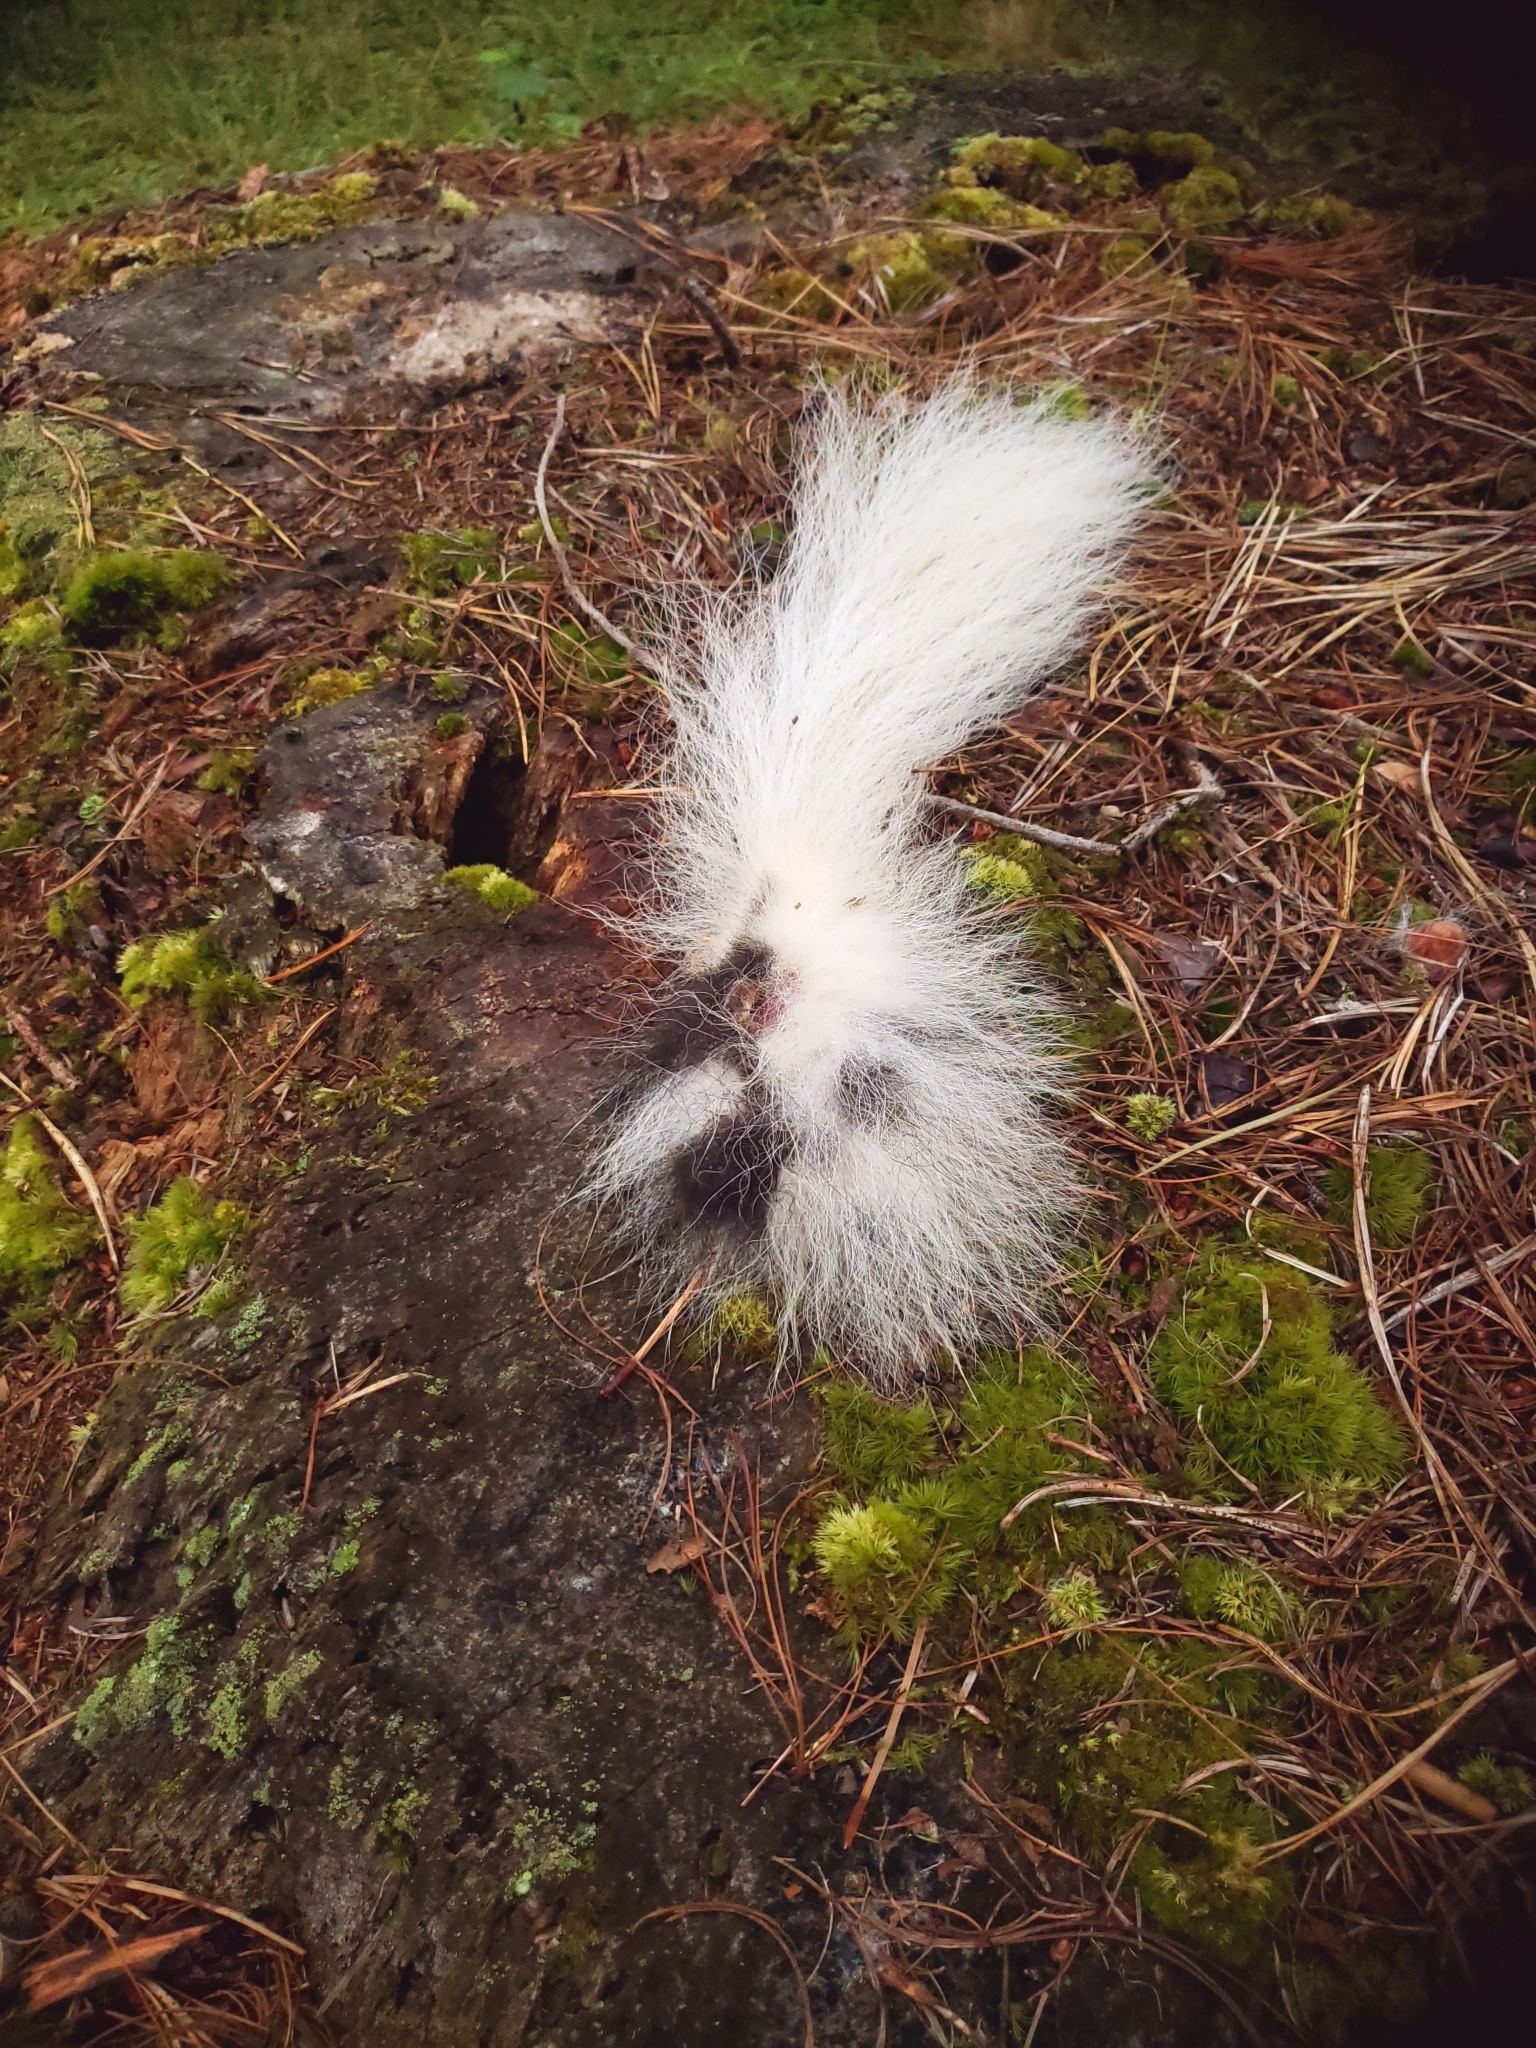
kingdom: Animalia
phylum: Chordata
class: Mammalia
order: Carnivora
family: Mephitidae
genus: Mephitis
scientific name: Mephitis mephitis
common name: Striped skunk
